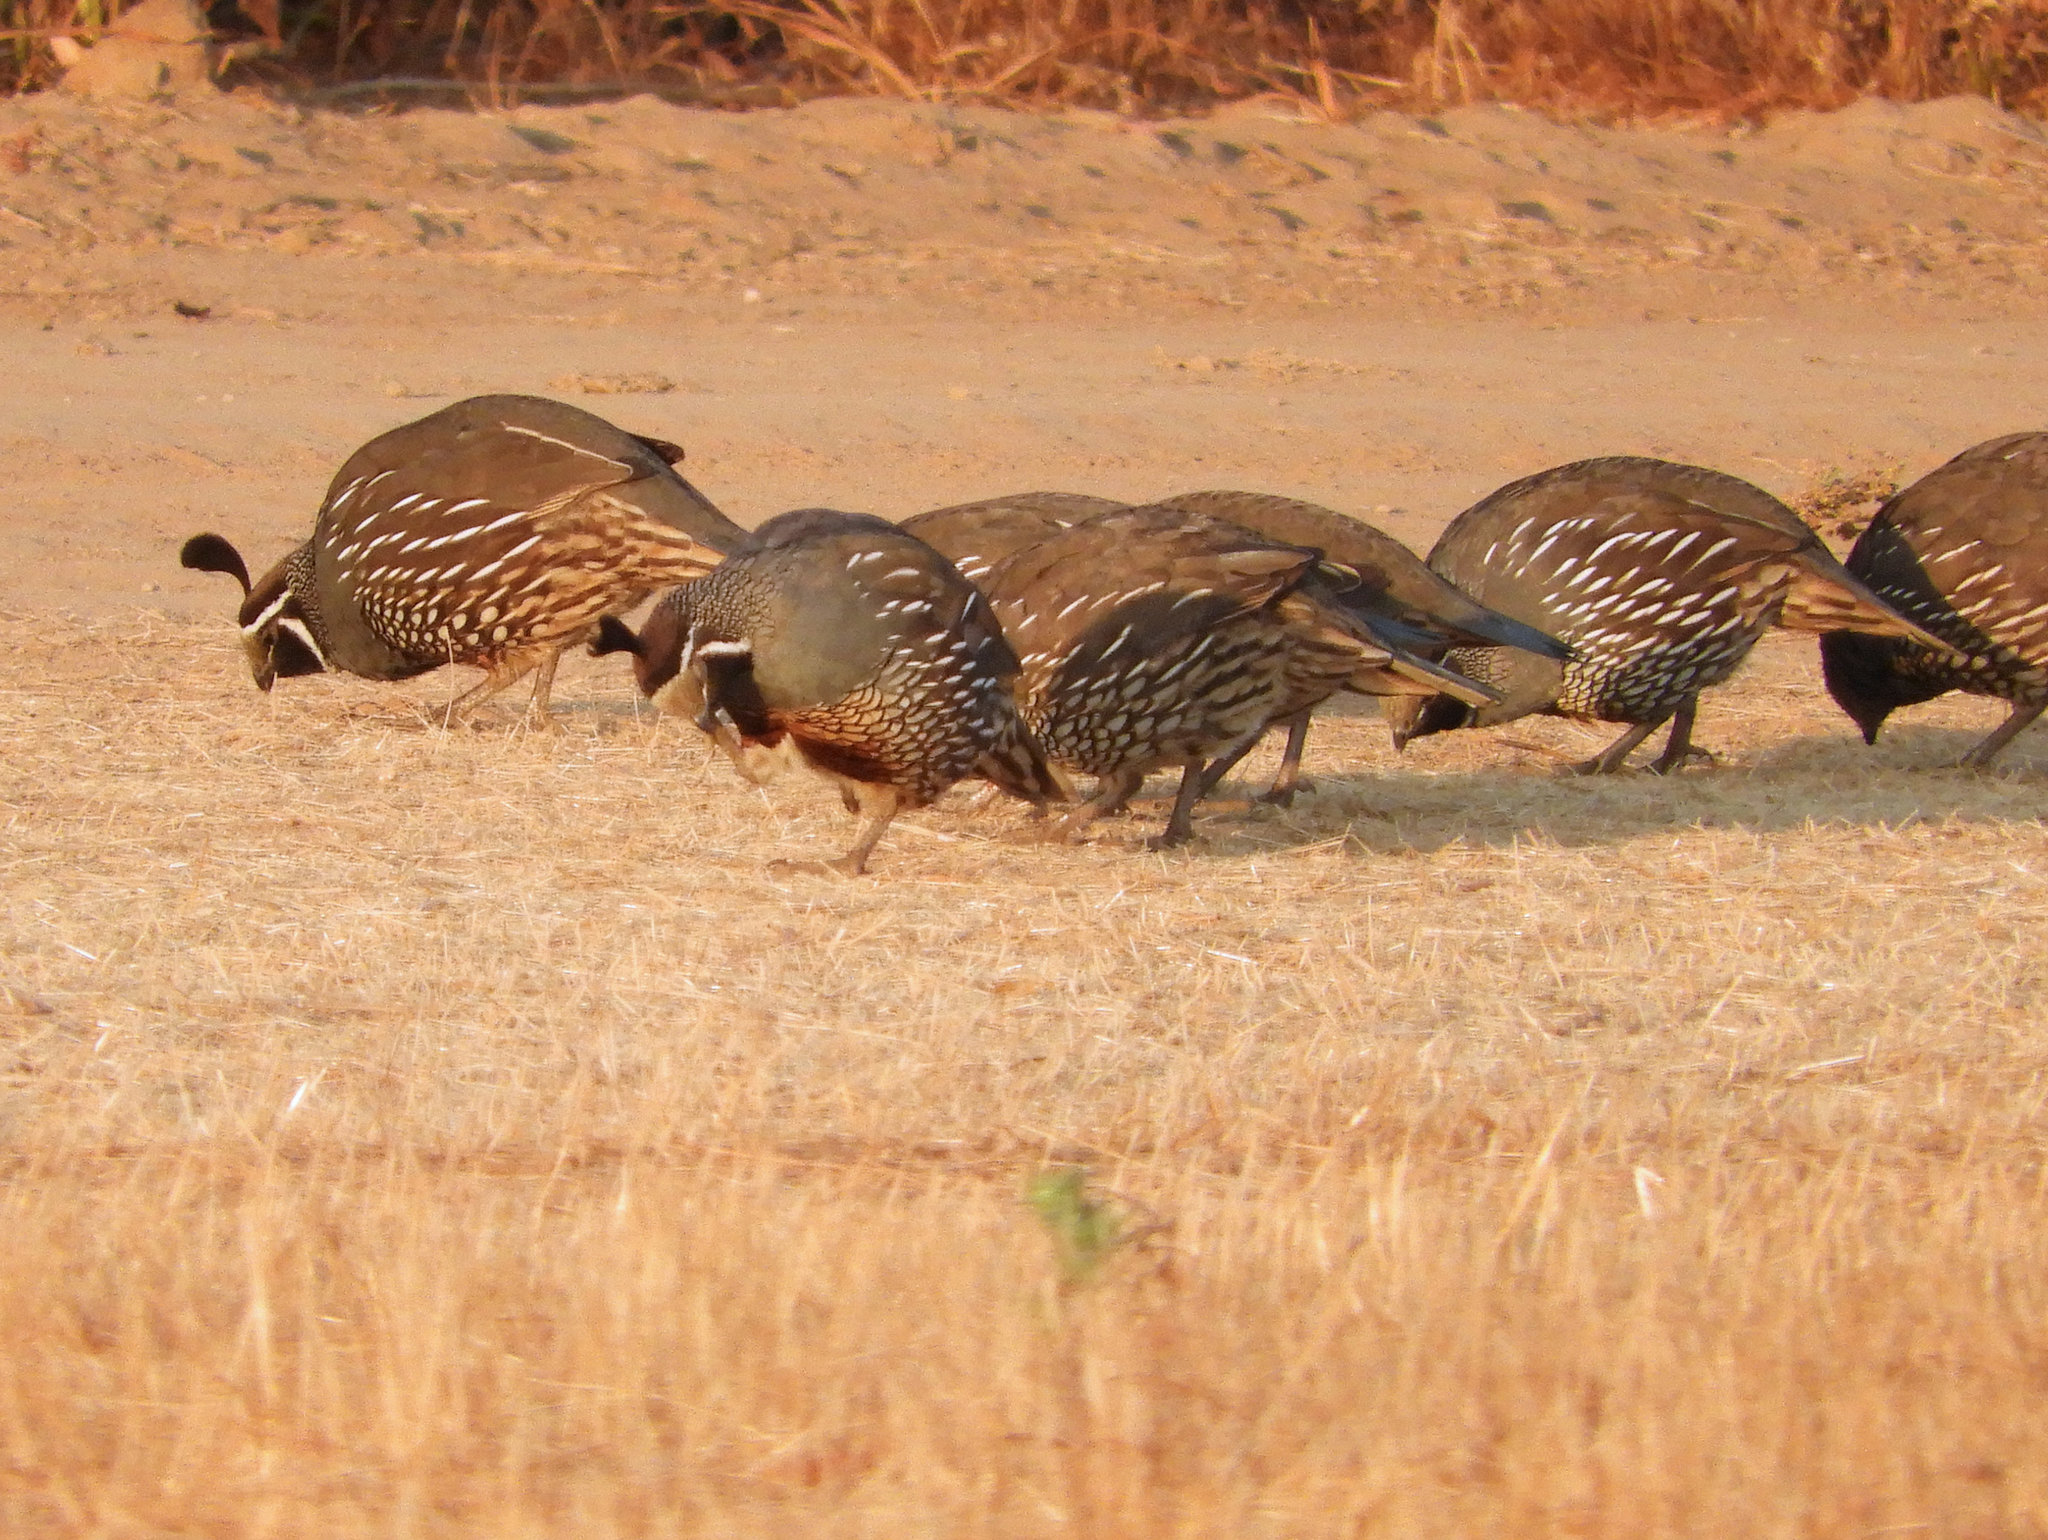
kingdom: Animalia
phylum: Chordata
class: Aves
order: Galliformes
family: Odontophoridae
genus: Callipepla
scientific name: Callipepla californica
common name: California quail
